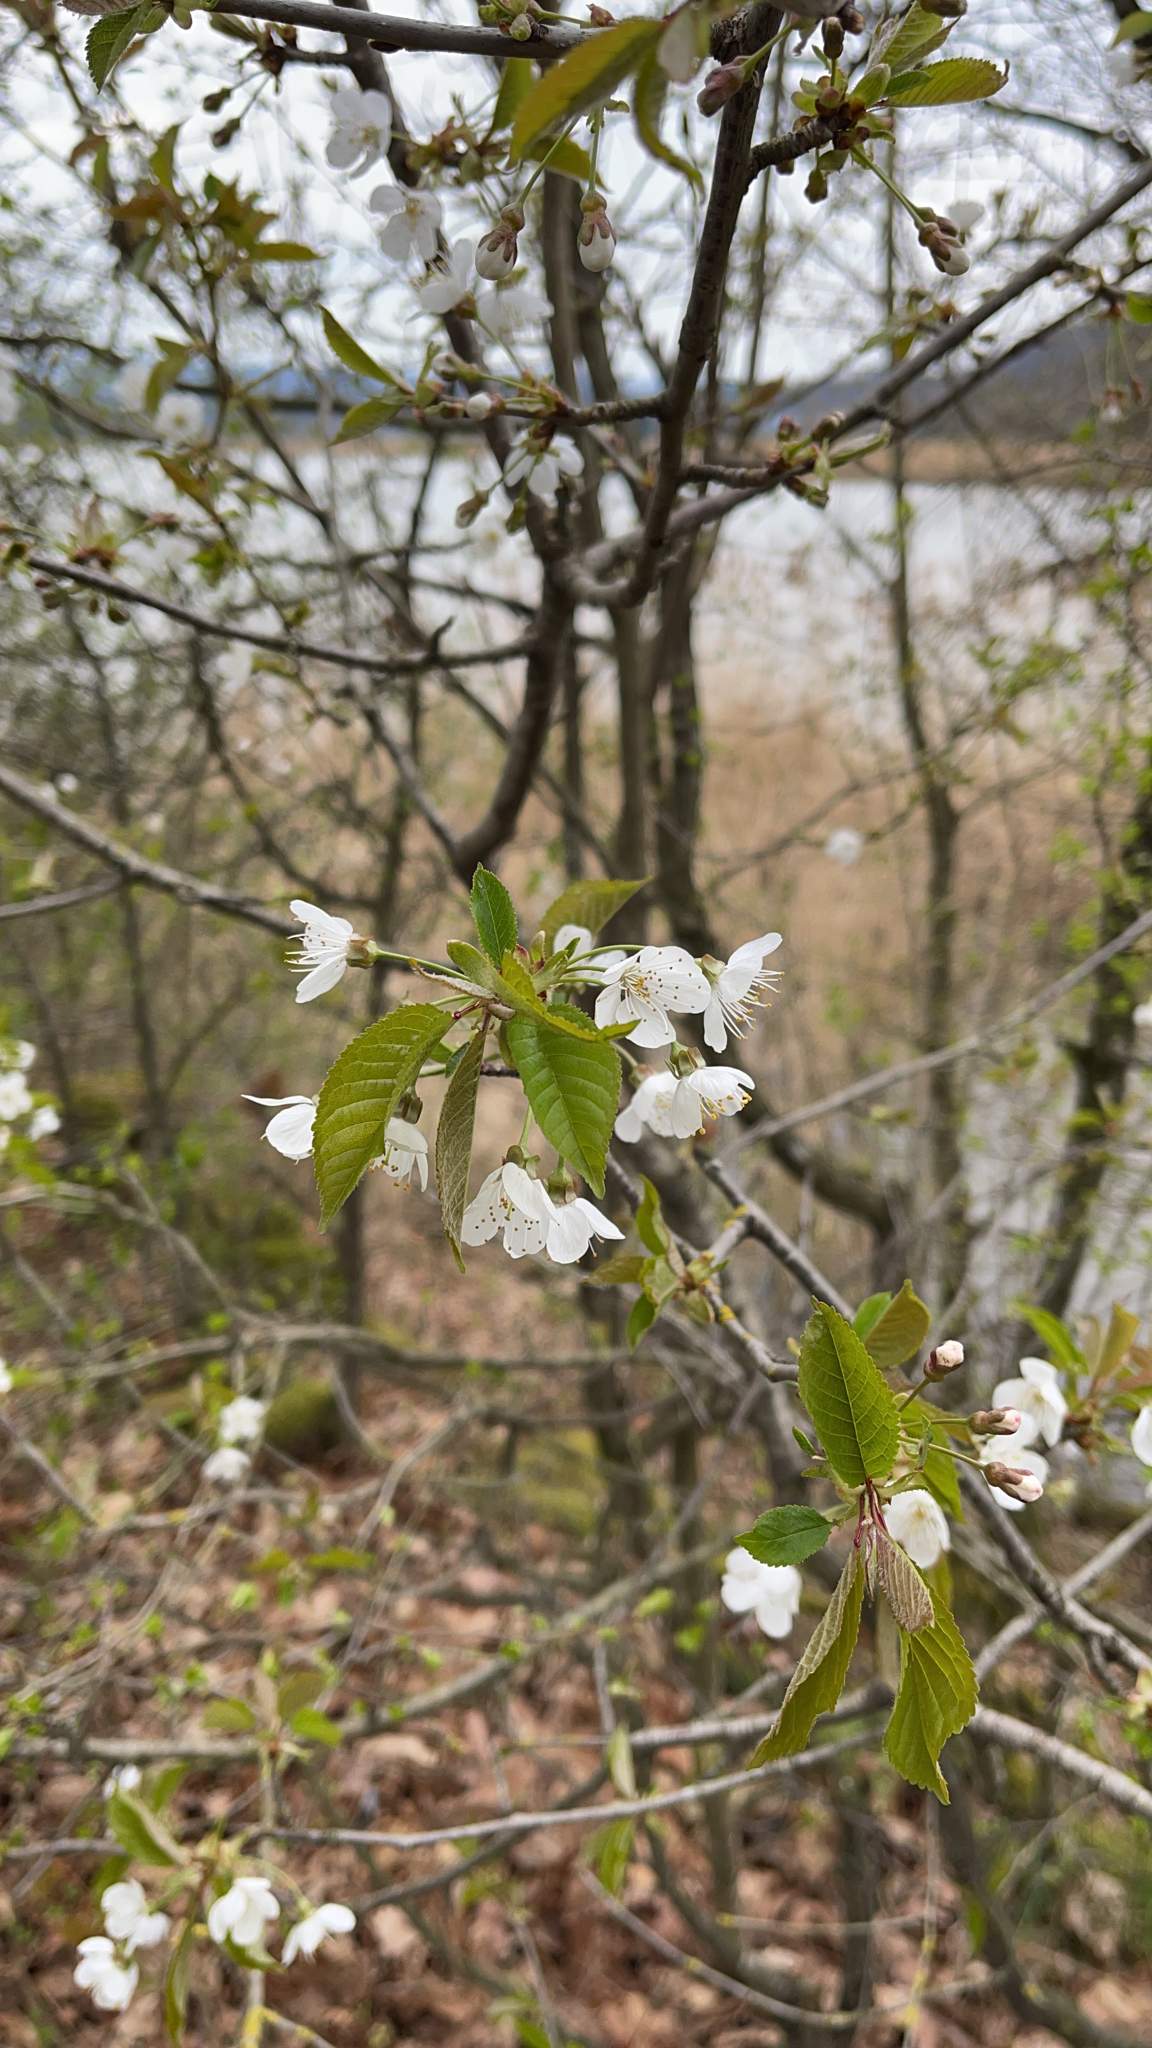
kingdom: Plantae
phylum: Tracheophyta
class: Magnoliopsida
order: Rosales
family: Rosaceae
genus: Prunus
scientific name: Prunus avium
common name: Sweet cherry
